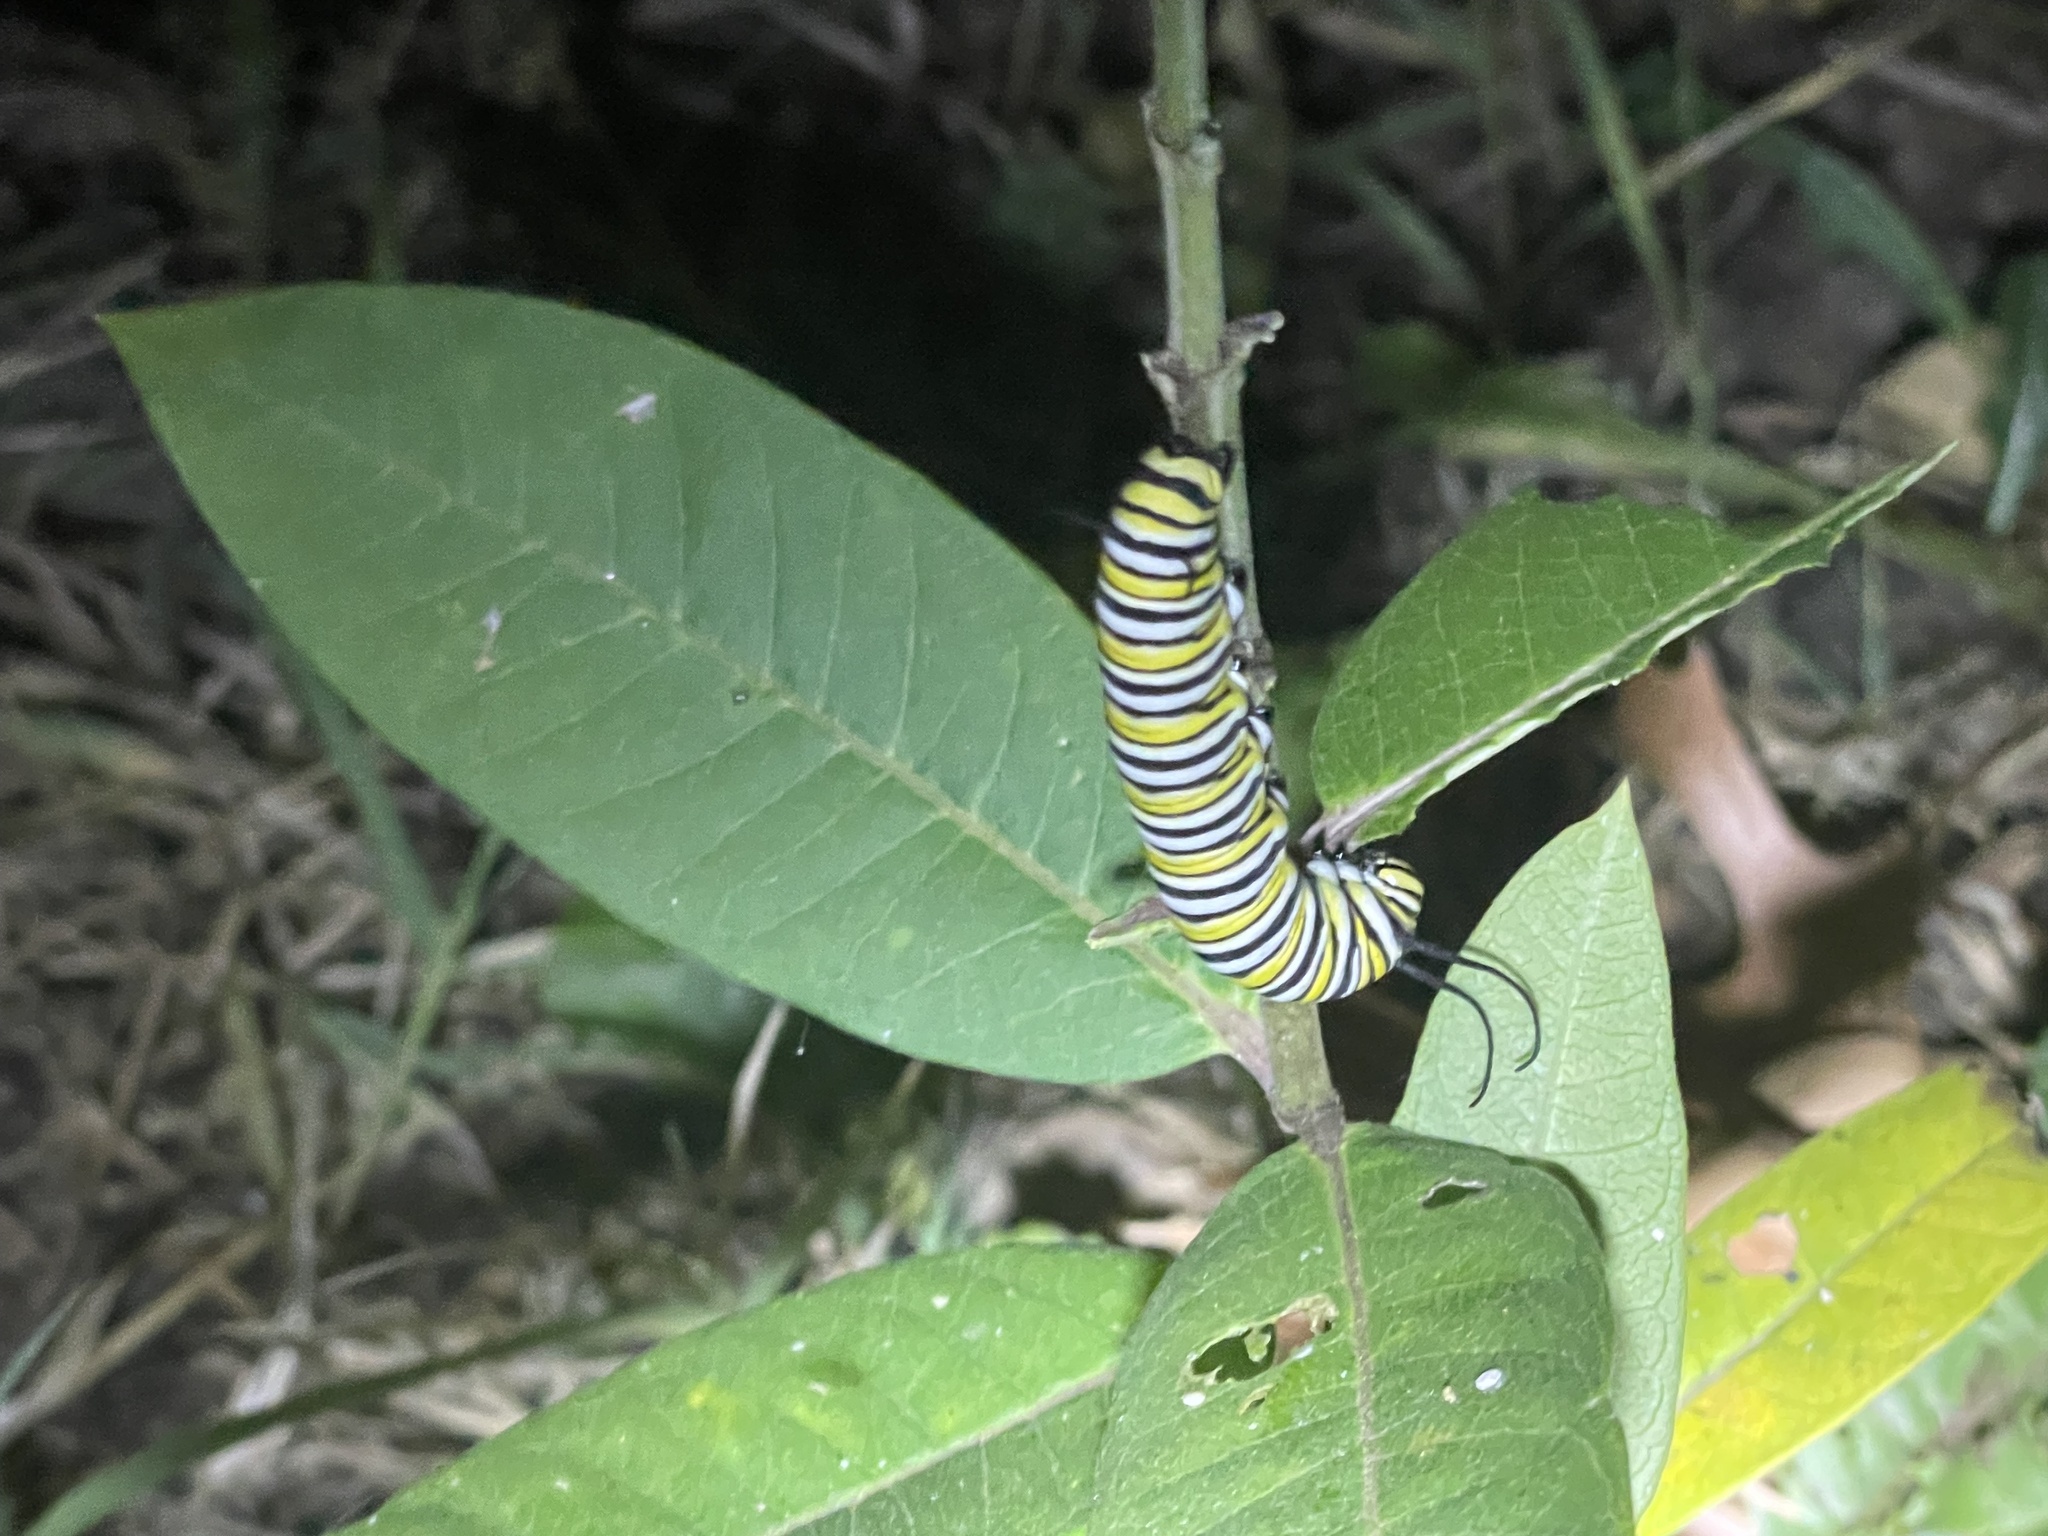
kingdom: Animalia
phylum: Arthropoda
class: Insecta
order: Lepidoptera
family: Nymphalidae
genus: Danaus
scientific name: Danaus plexippus
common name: Monarch
